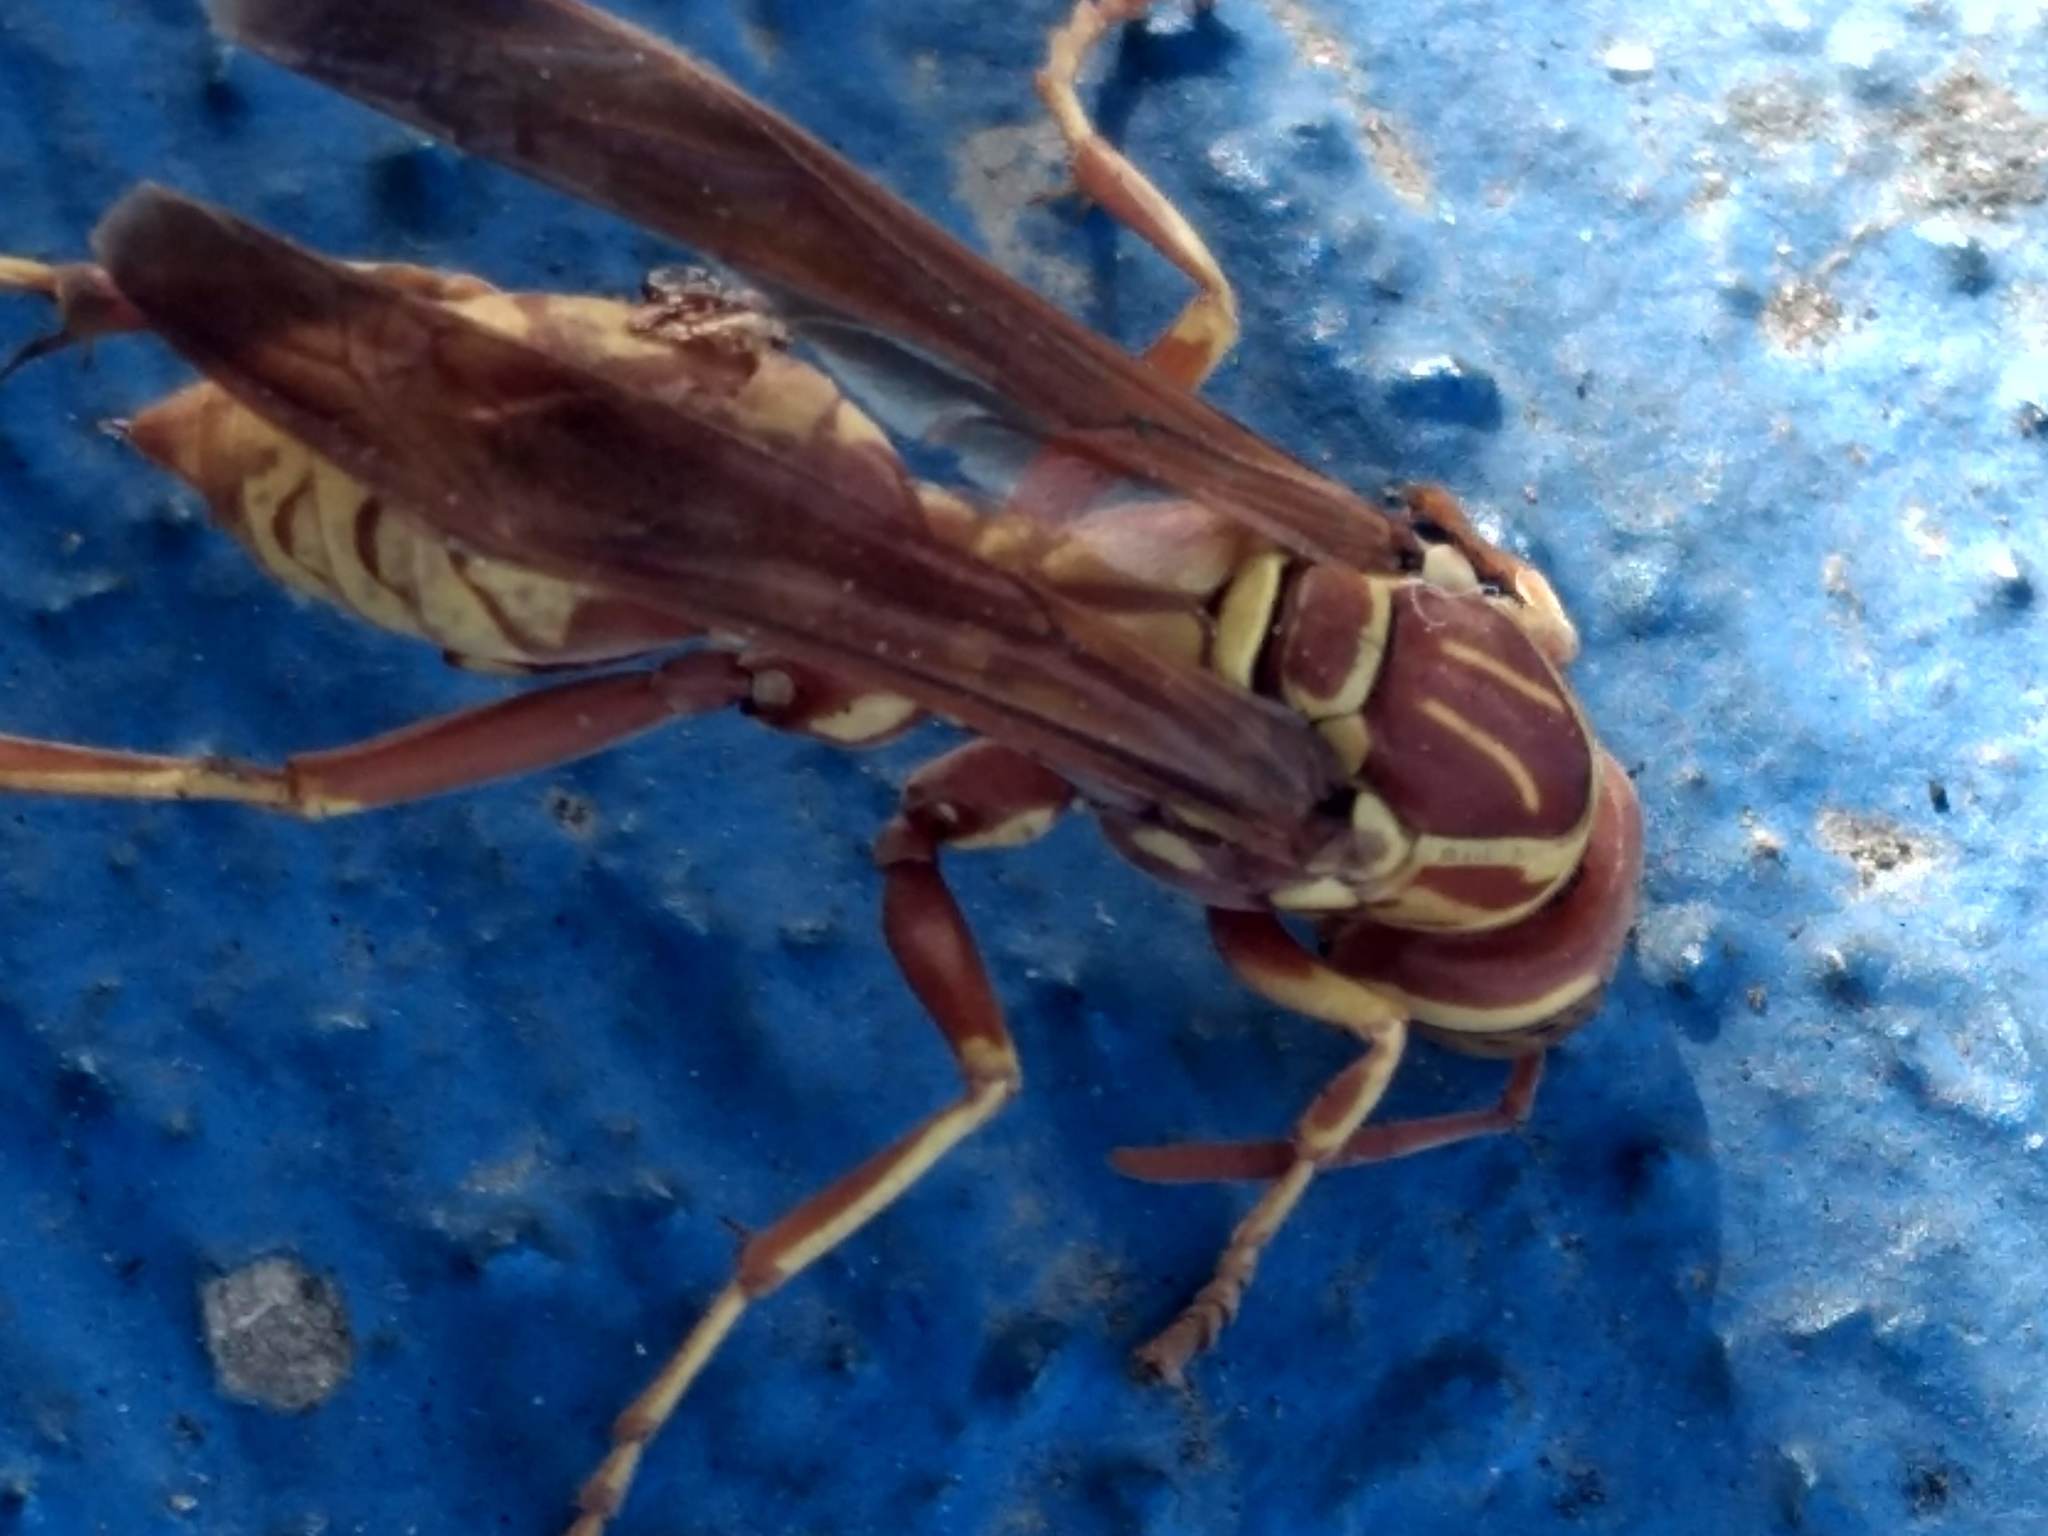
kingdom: Animalia
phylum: Arthropoda
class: Insecta
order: Hymenoptera
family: Eumenidae
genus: Polistes
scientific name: Polistes apachus
